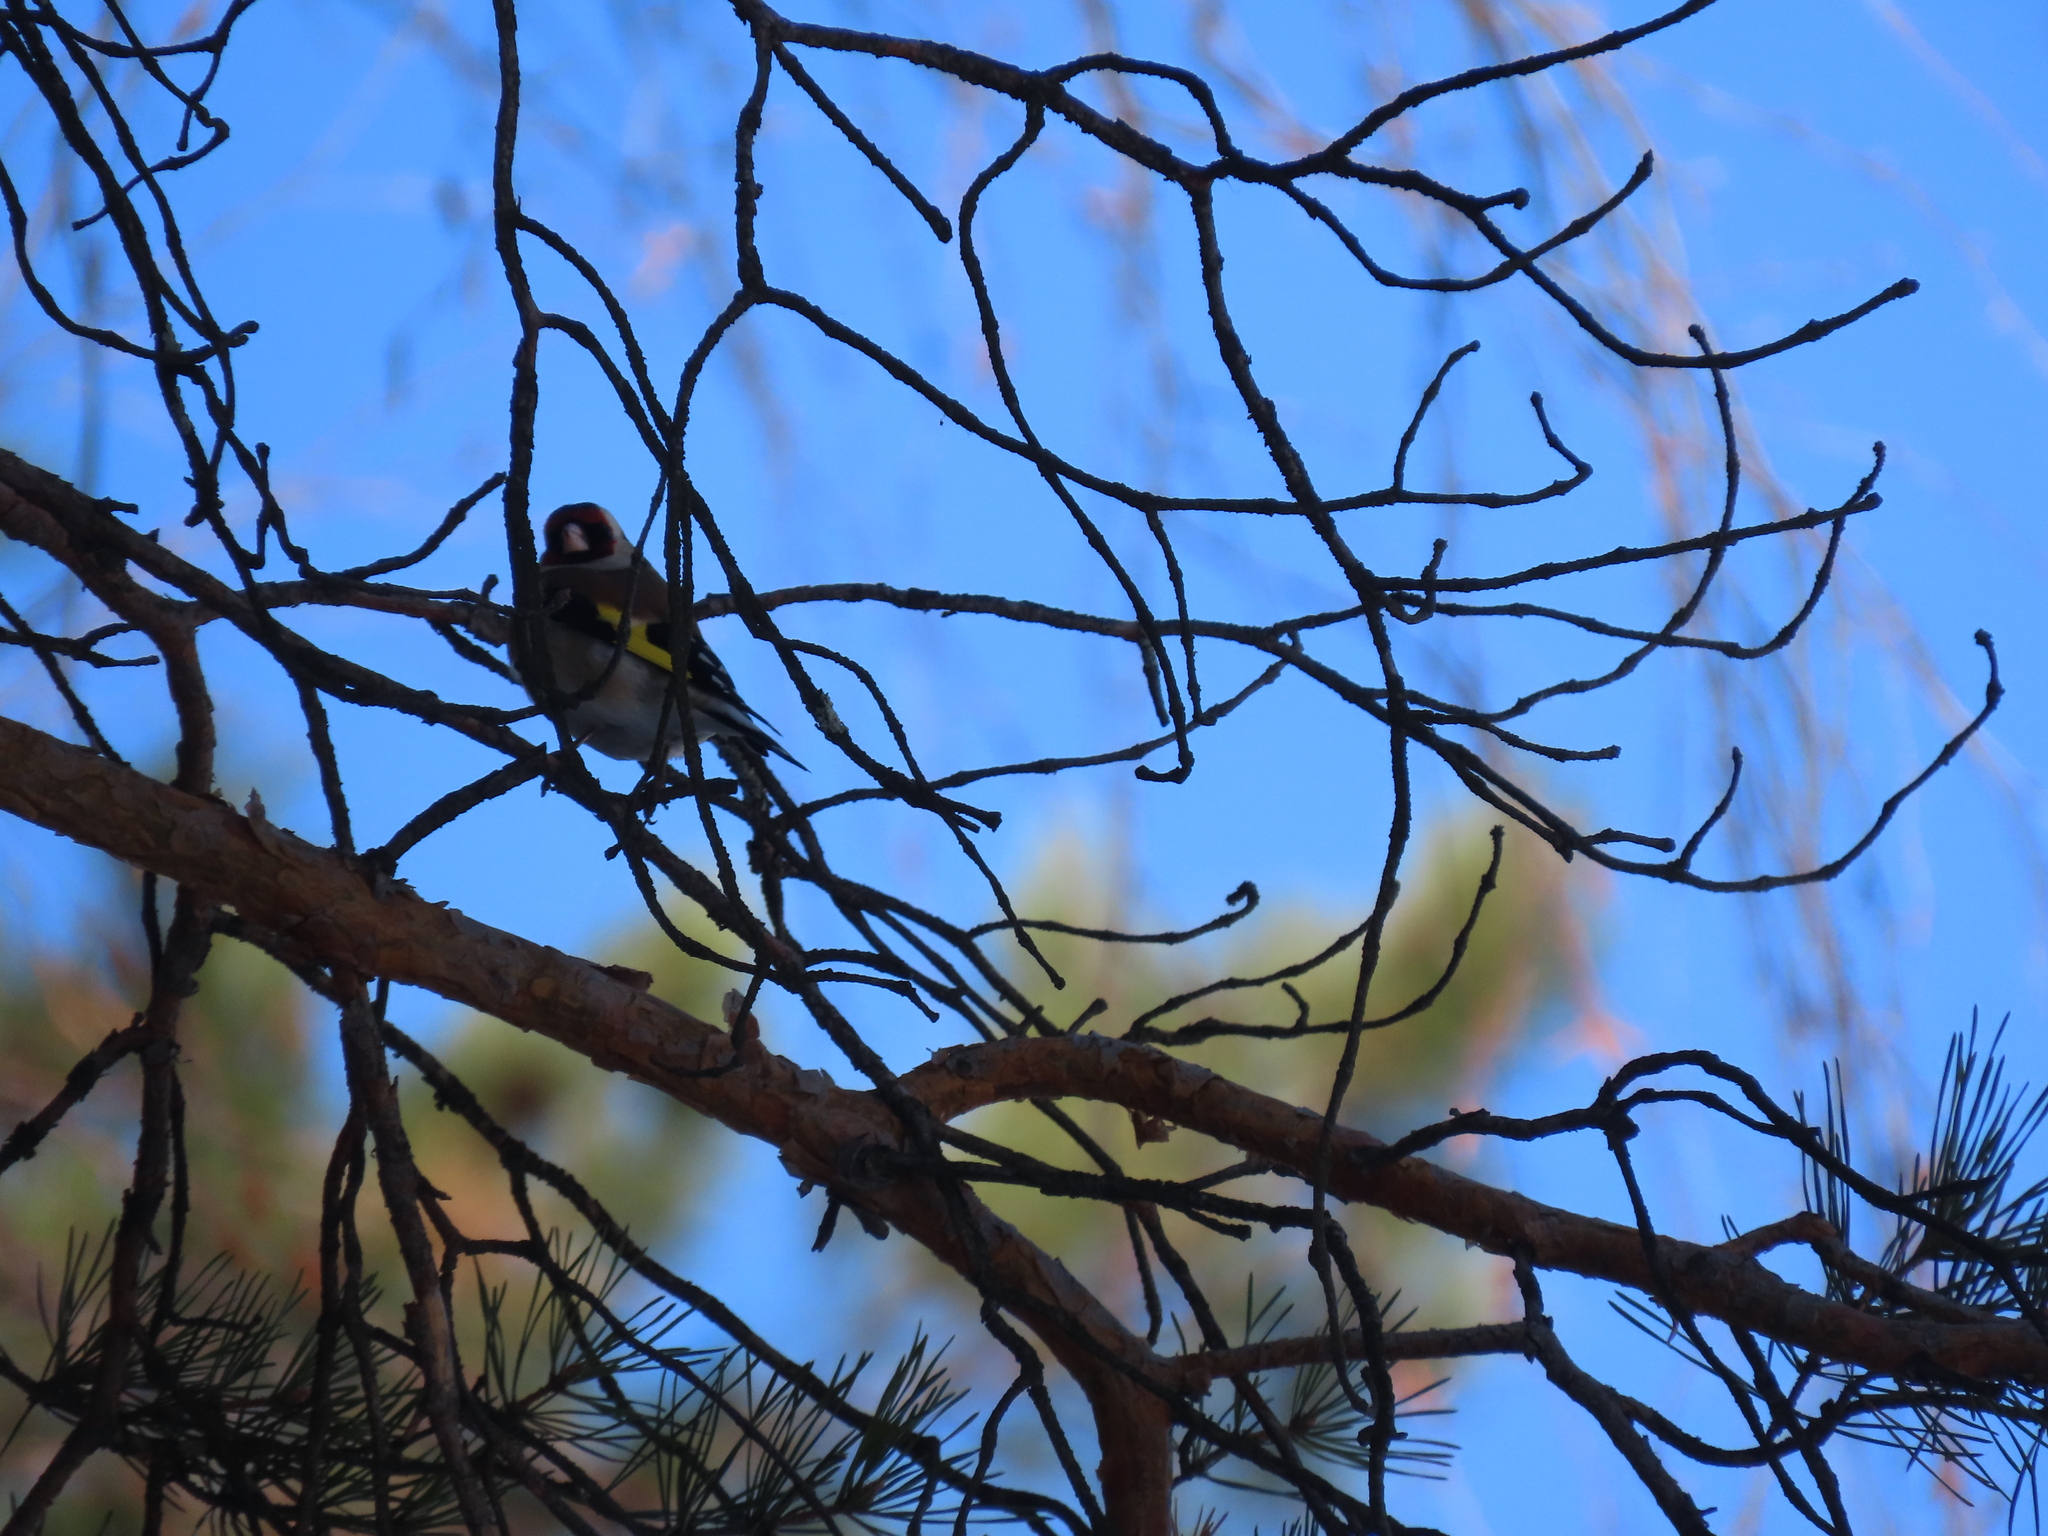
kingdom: Animalia
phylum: Chordata
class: Aves
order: Passeriformes
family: Fringillidae
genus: Carduelis
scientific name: Carduelis carduelis
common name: European goldfinch
